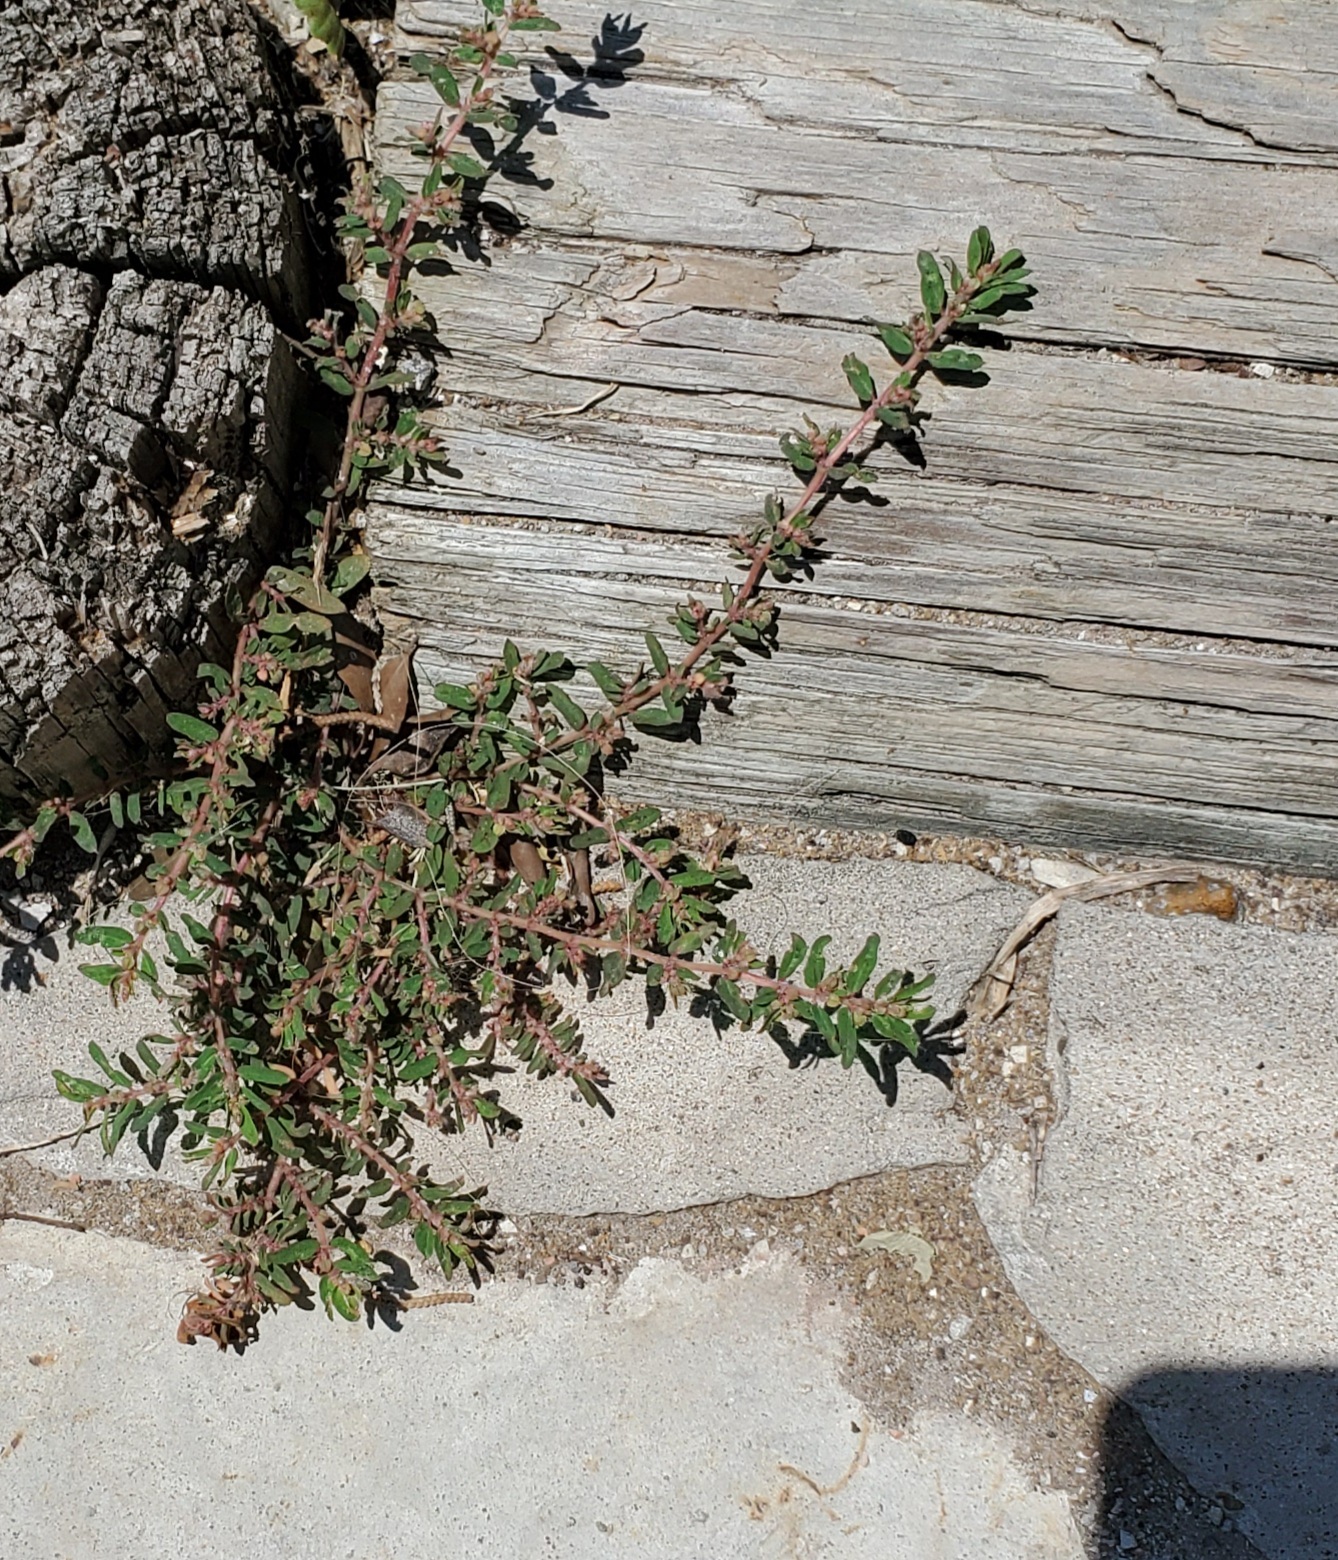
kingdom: Plantae
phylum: Tracheophyta
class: Magnoliopsida
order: Malpighiales
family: Euphorbiaceae
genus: Euphorbia
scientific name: Euphorbia maculata
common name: Spotted spurge
